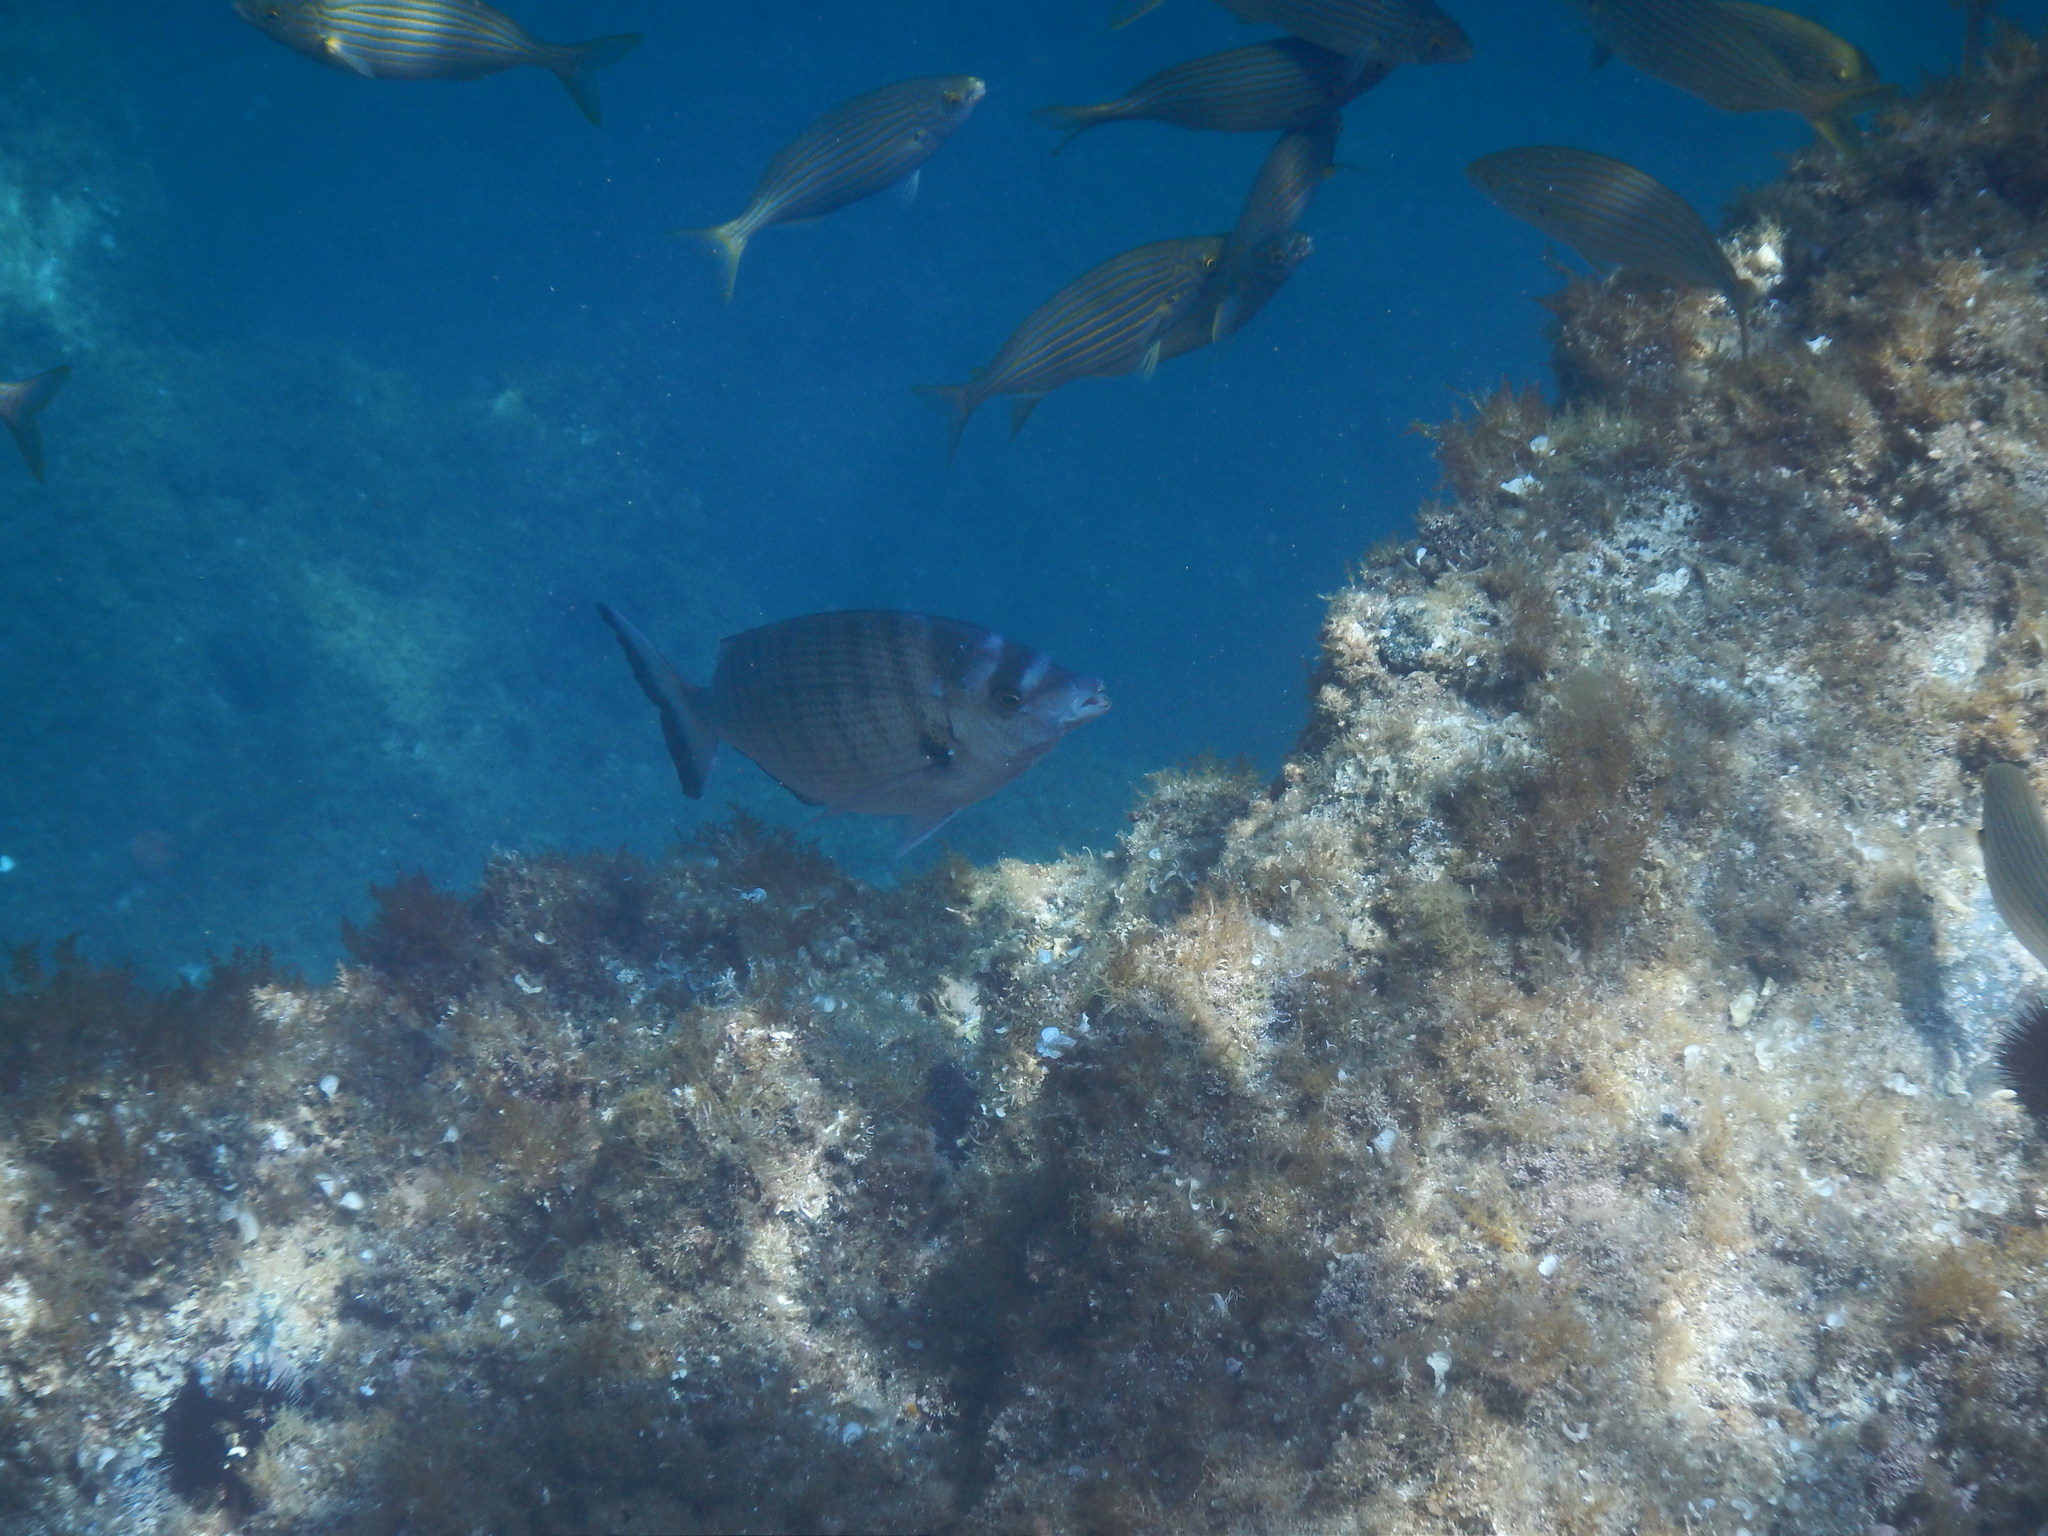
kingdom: Animalia
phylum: Chordata
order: Perciformes
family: Sparidae
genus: Diplodus
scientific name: Diplodus puntazzo
